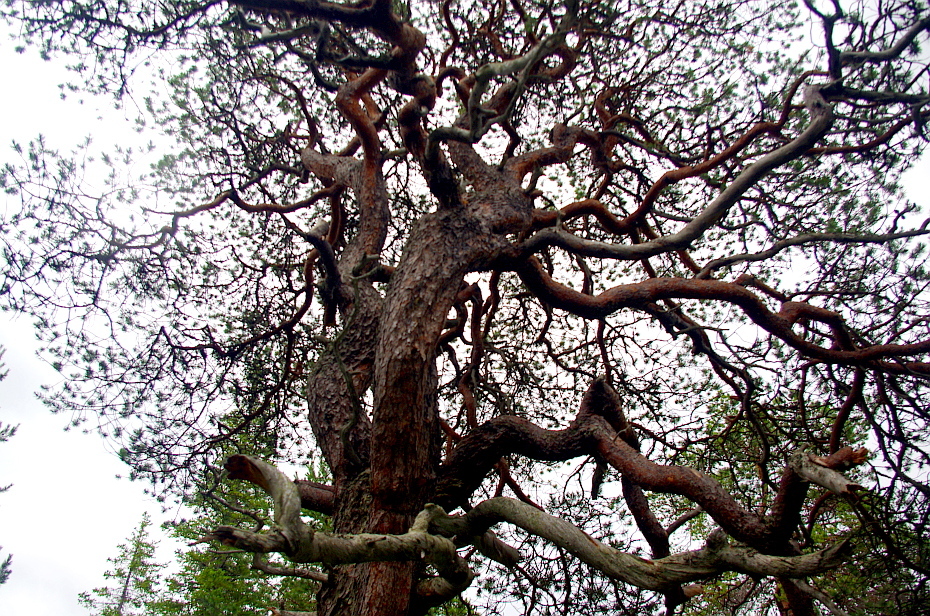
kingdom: Plantae
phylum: Tracheophyta
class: Pinopsida
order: Pinales
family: Pinaceae
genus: Pinus
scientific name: Pinus sylvestris
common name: Scots pine
